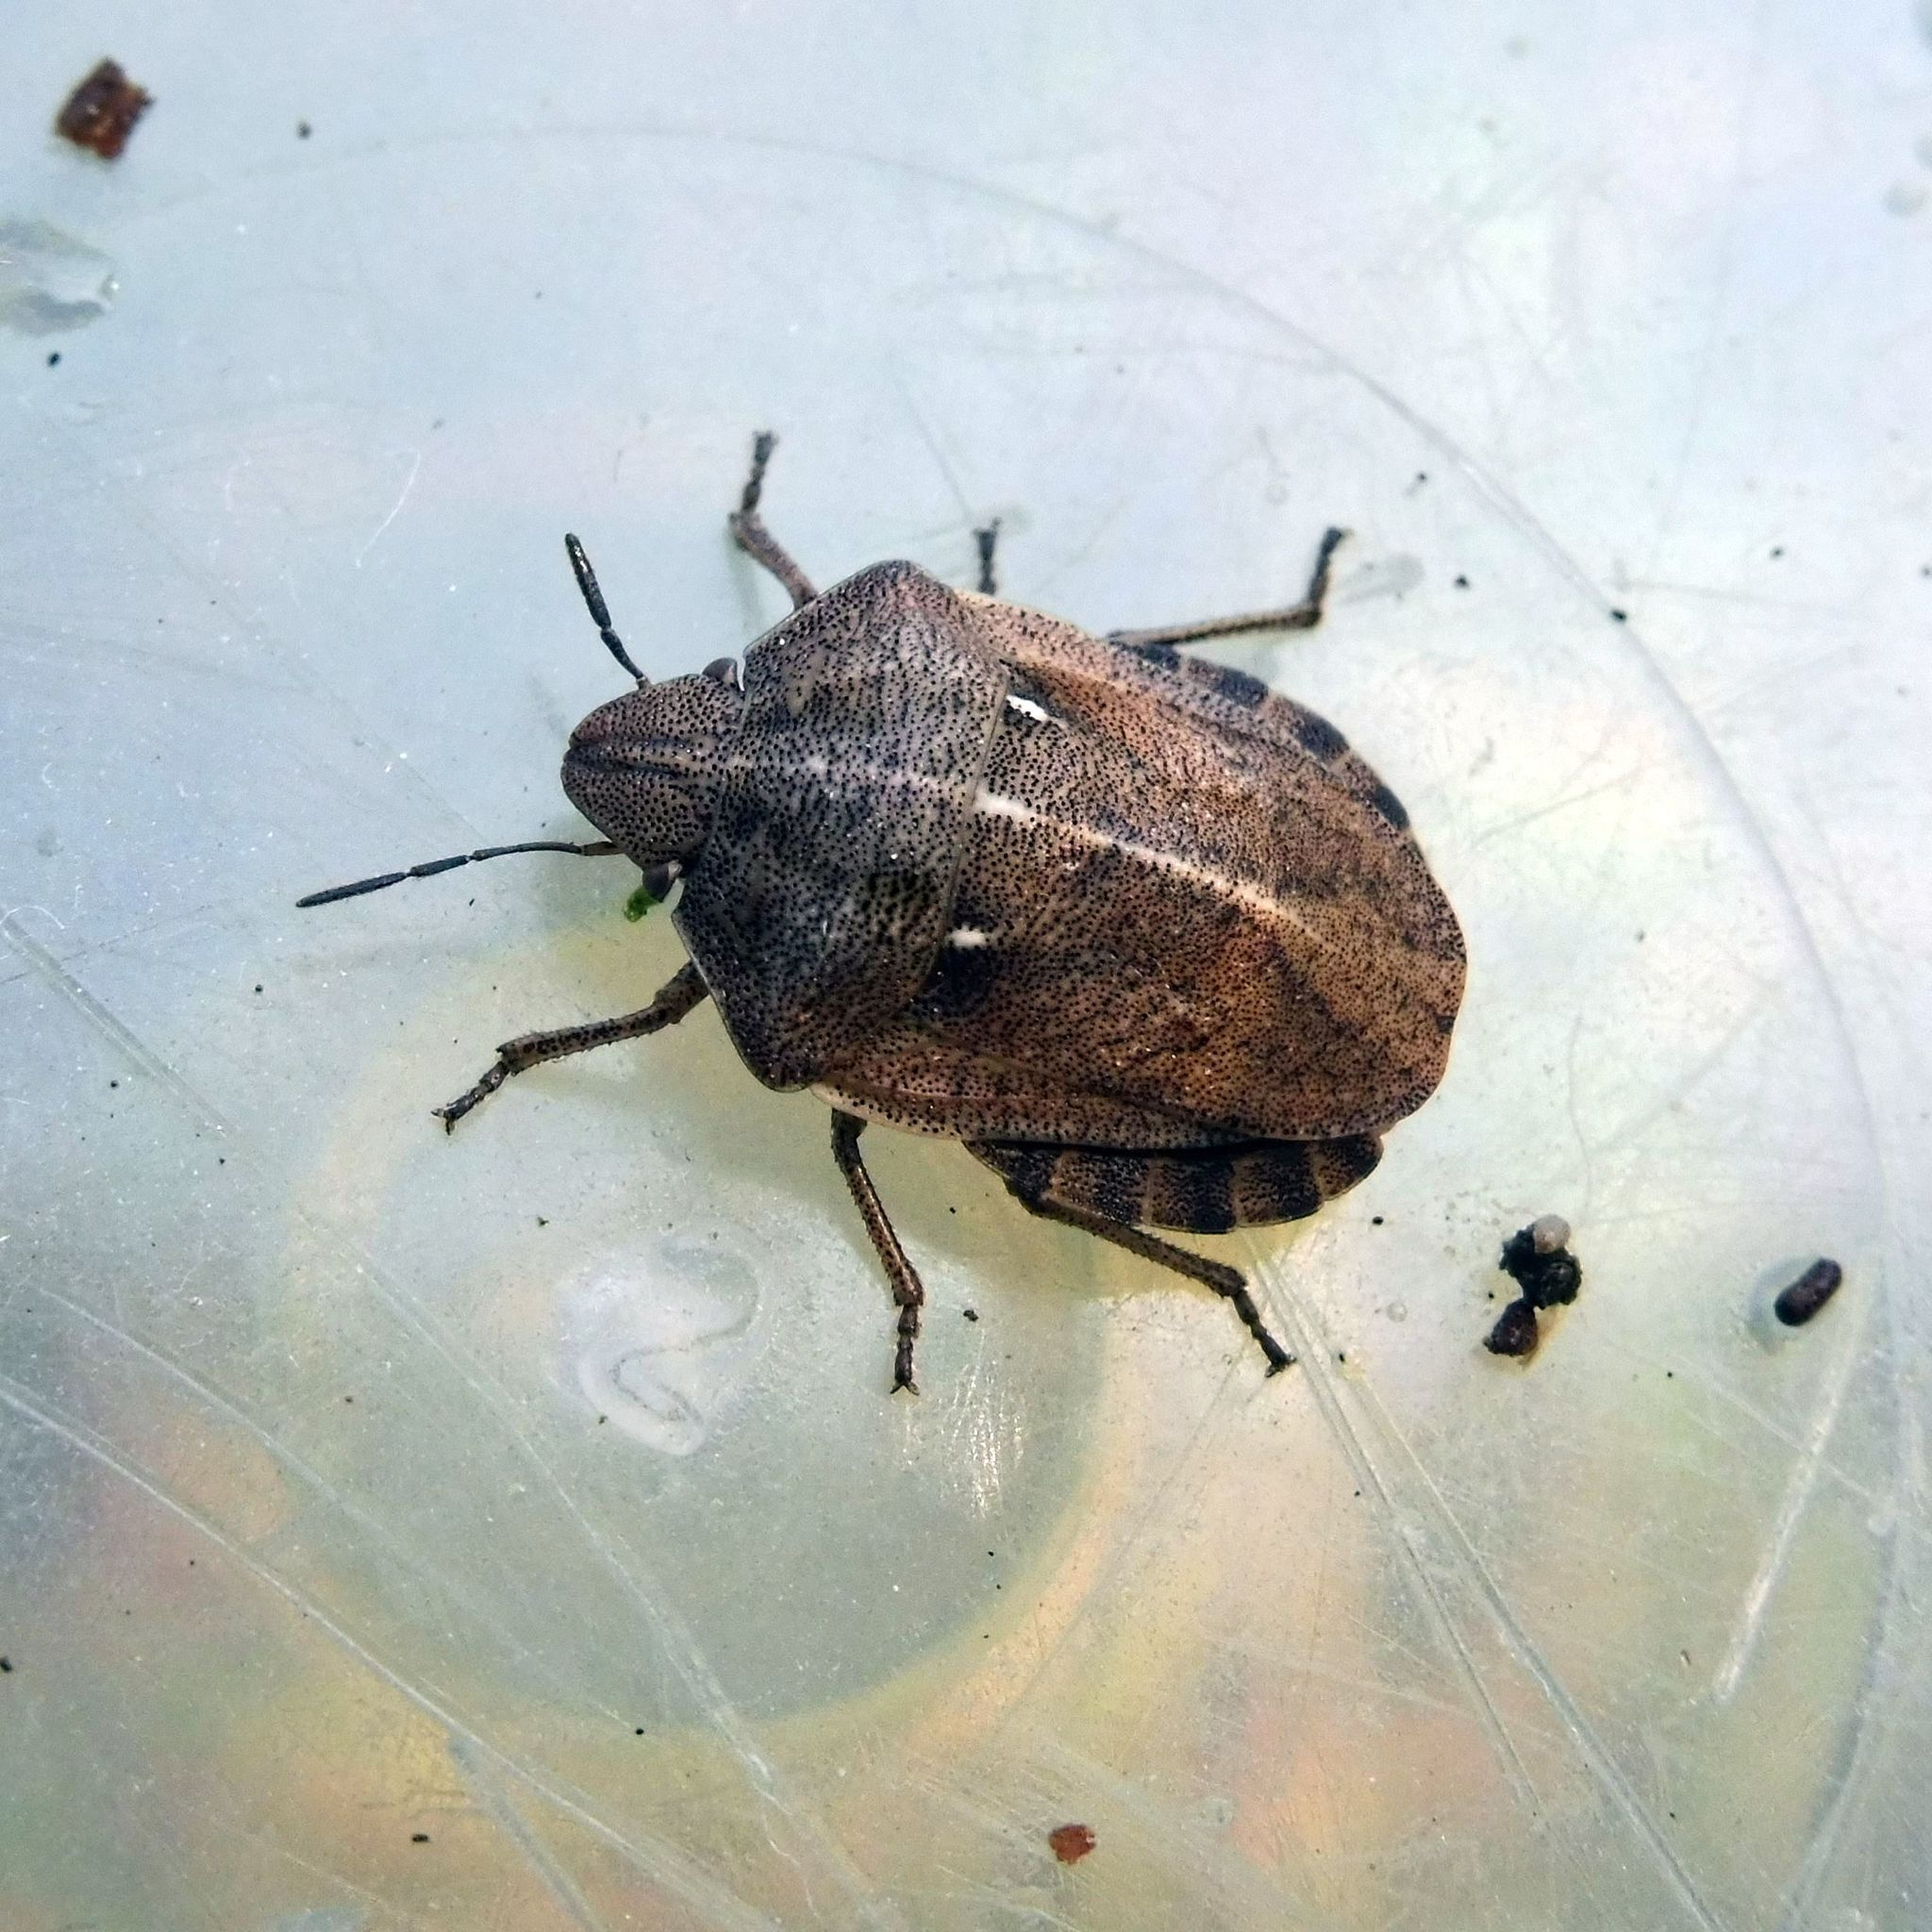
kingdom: Animalia
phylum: Arthropoda
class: Insecta
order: Hemiptera
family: Scutelleridae
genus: Eurygaster
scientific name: Eurygaster testudinaria
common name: Tortoise bug
